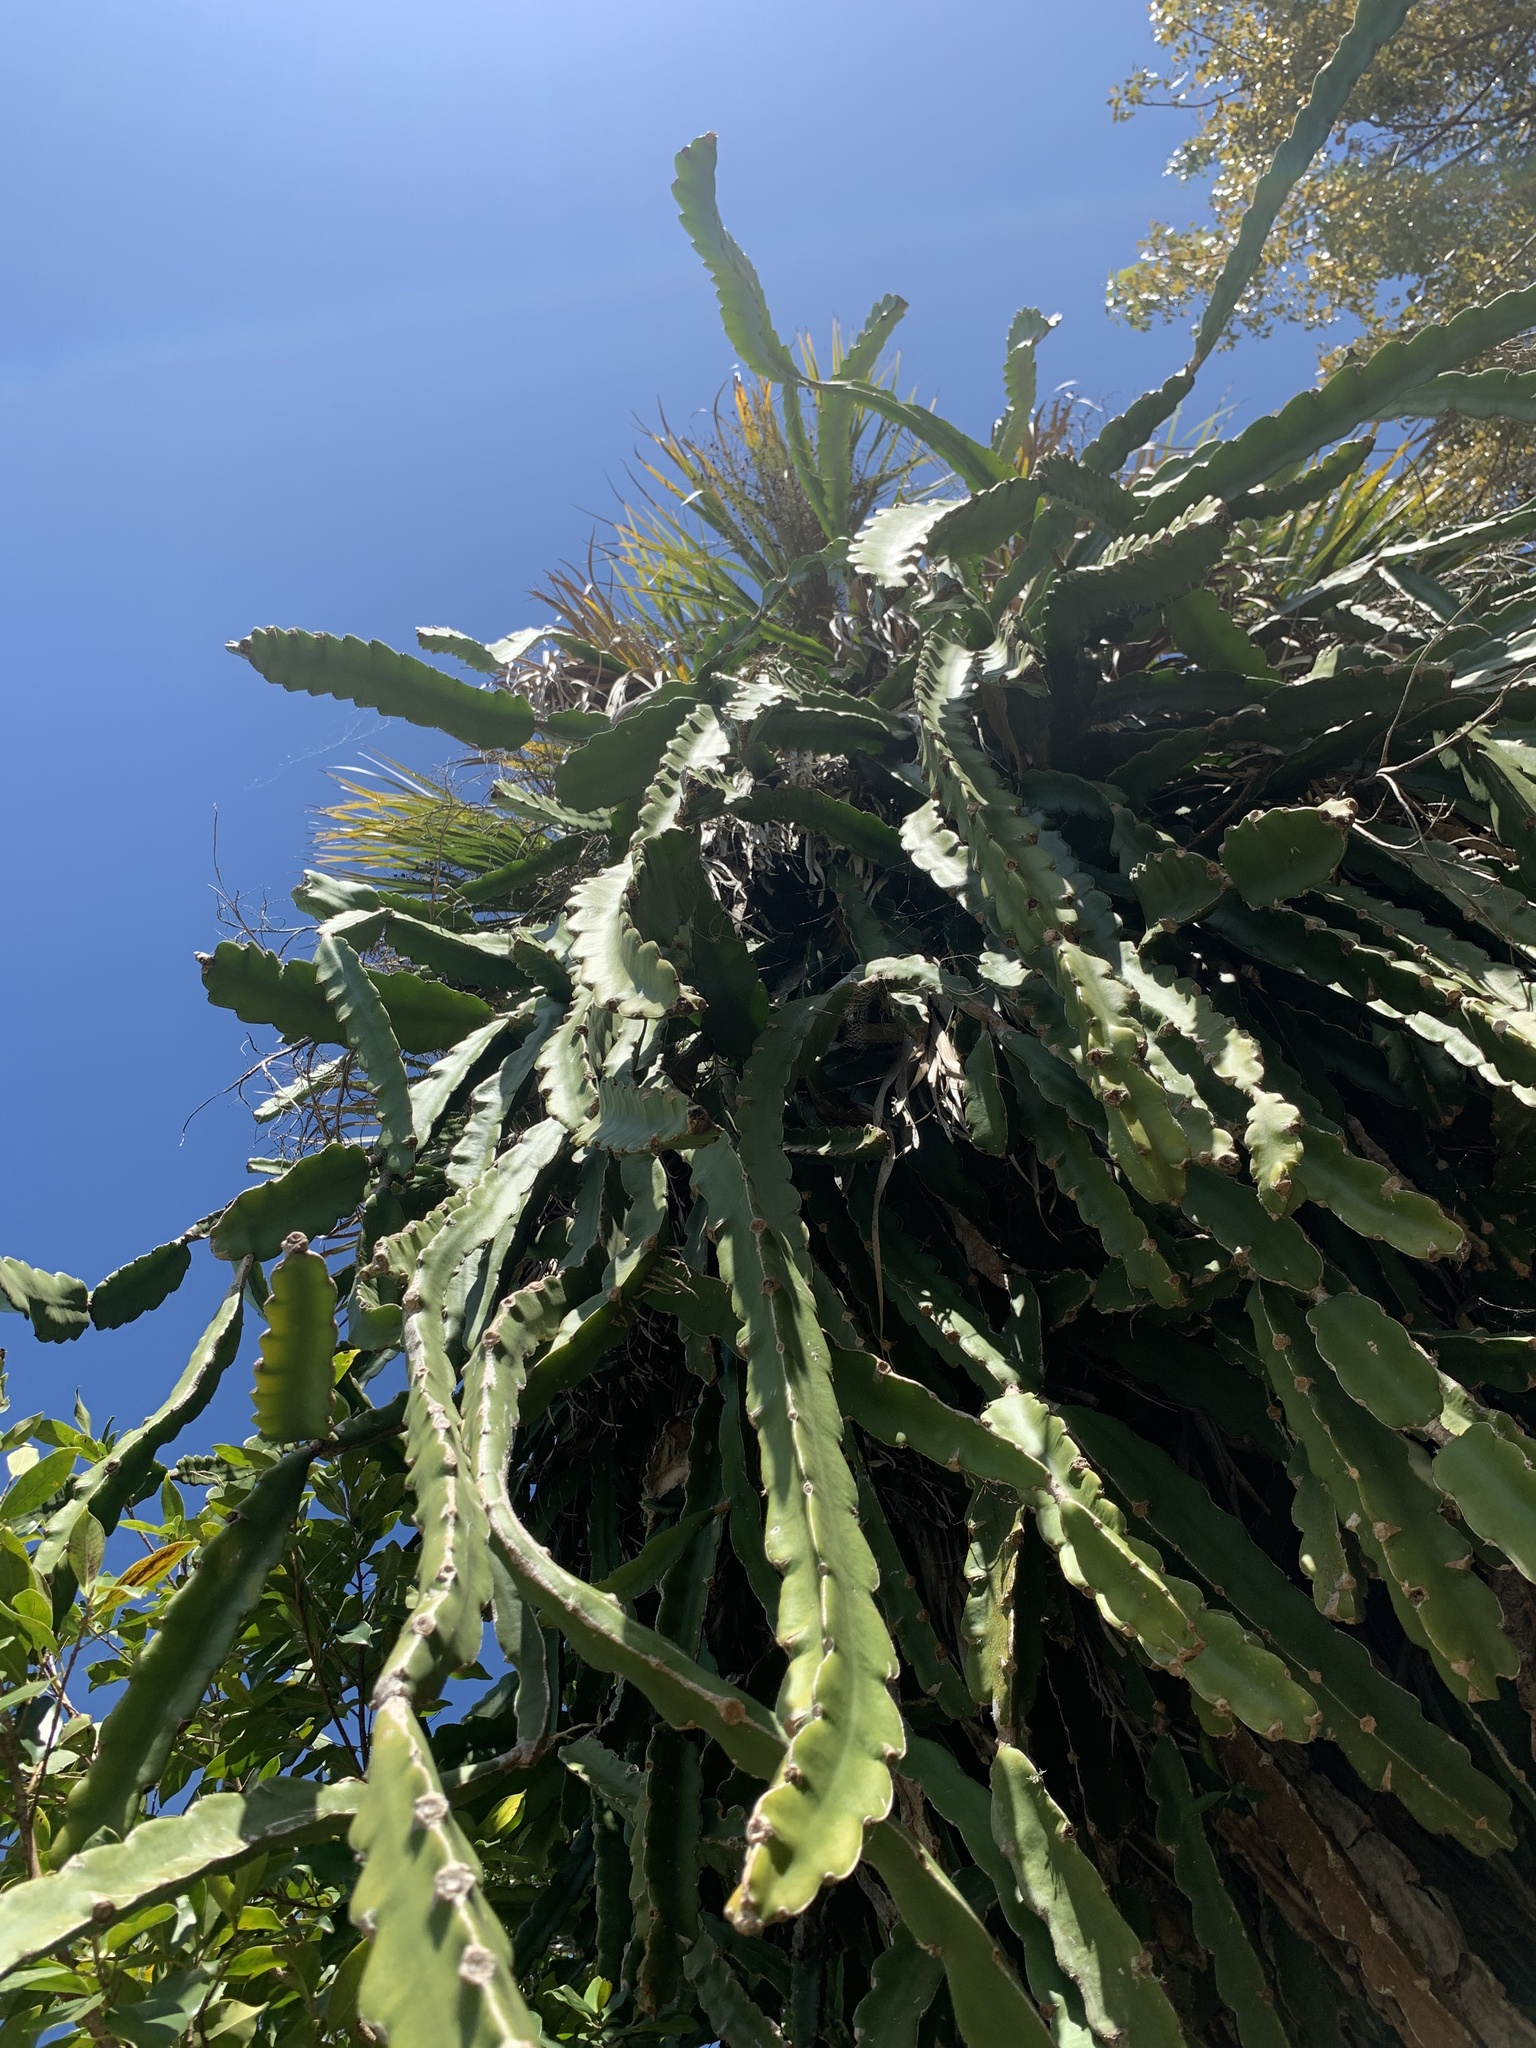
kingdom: Plantae
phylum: Tracheophyta
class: Magnoliopsida
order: Caryophyllales
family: Cactaceae
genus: Selenicereus
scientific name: Selenicereus undatus
